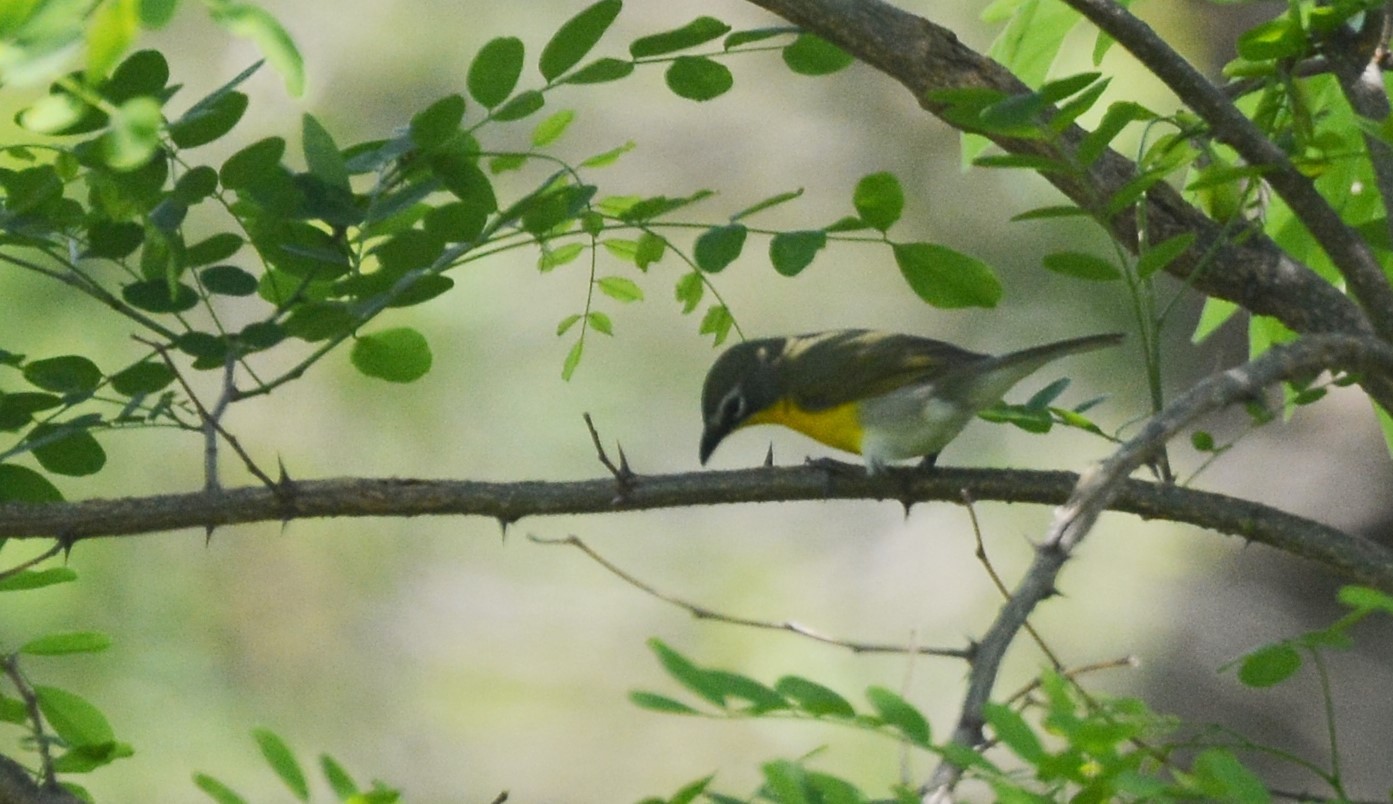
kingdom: Animalia
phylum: Chordata
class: Aves
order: Passeriformes
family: Parulidae
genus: Icteria
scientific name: Icteria virens
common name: Yellow-breasted chat
